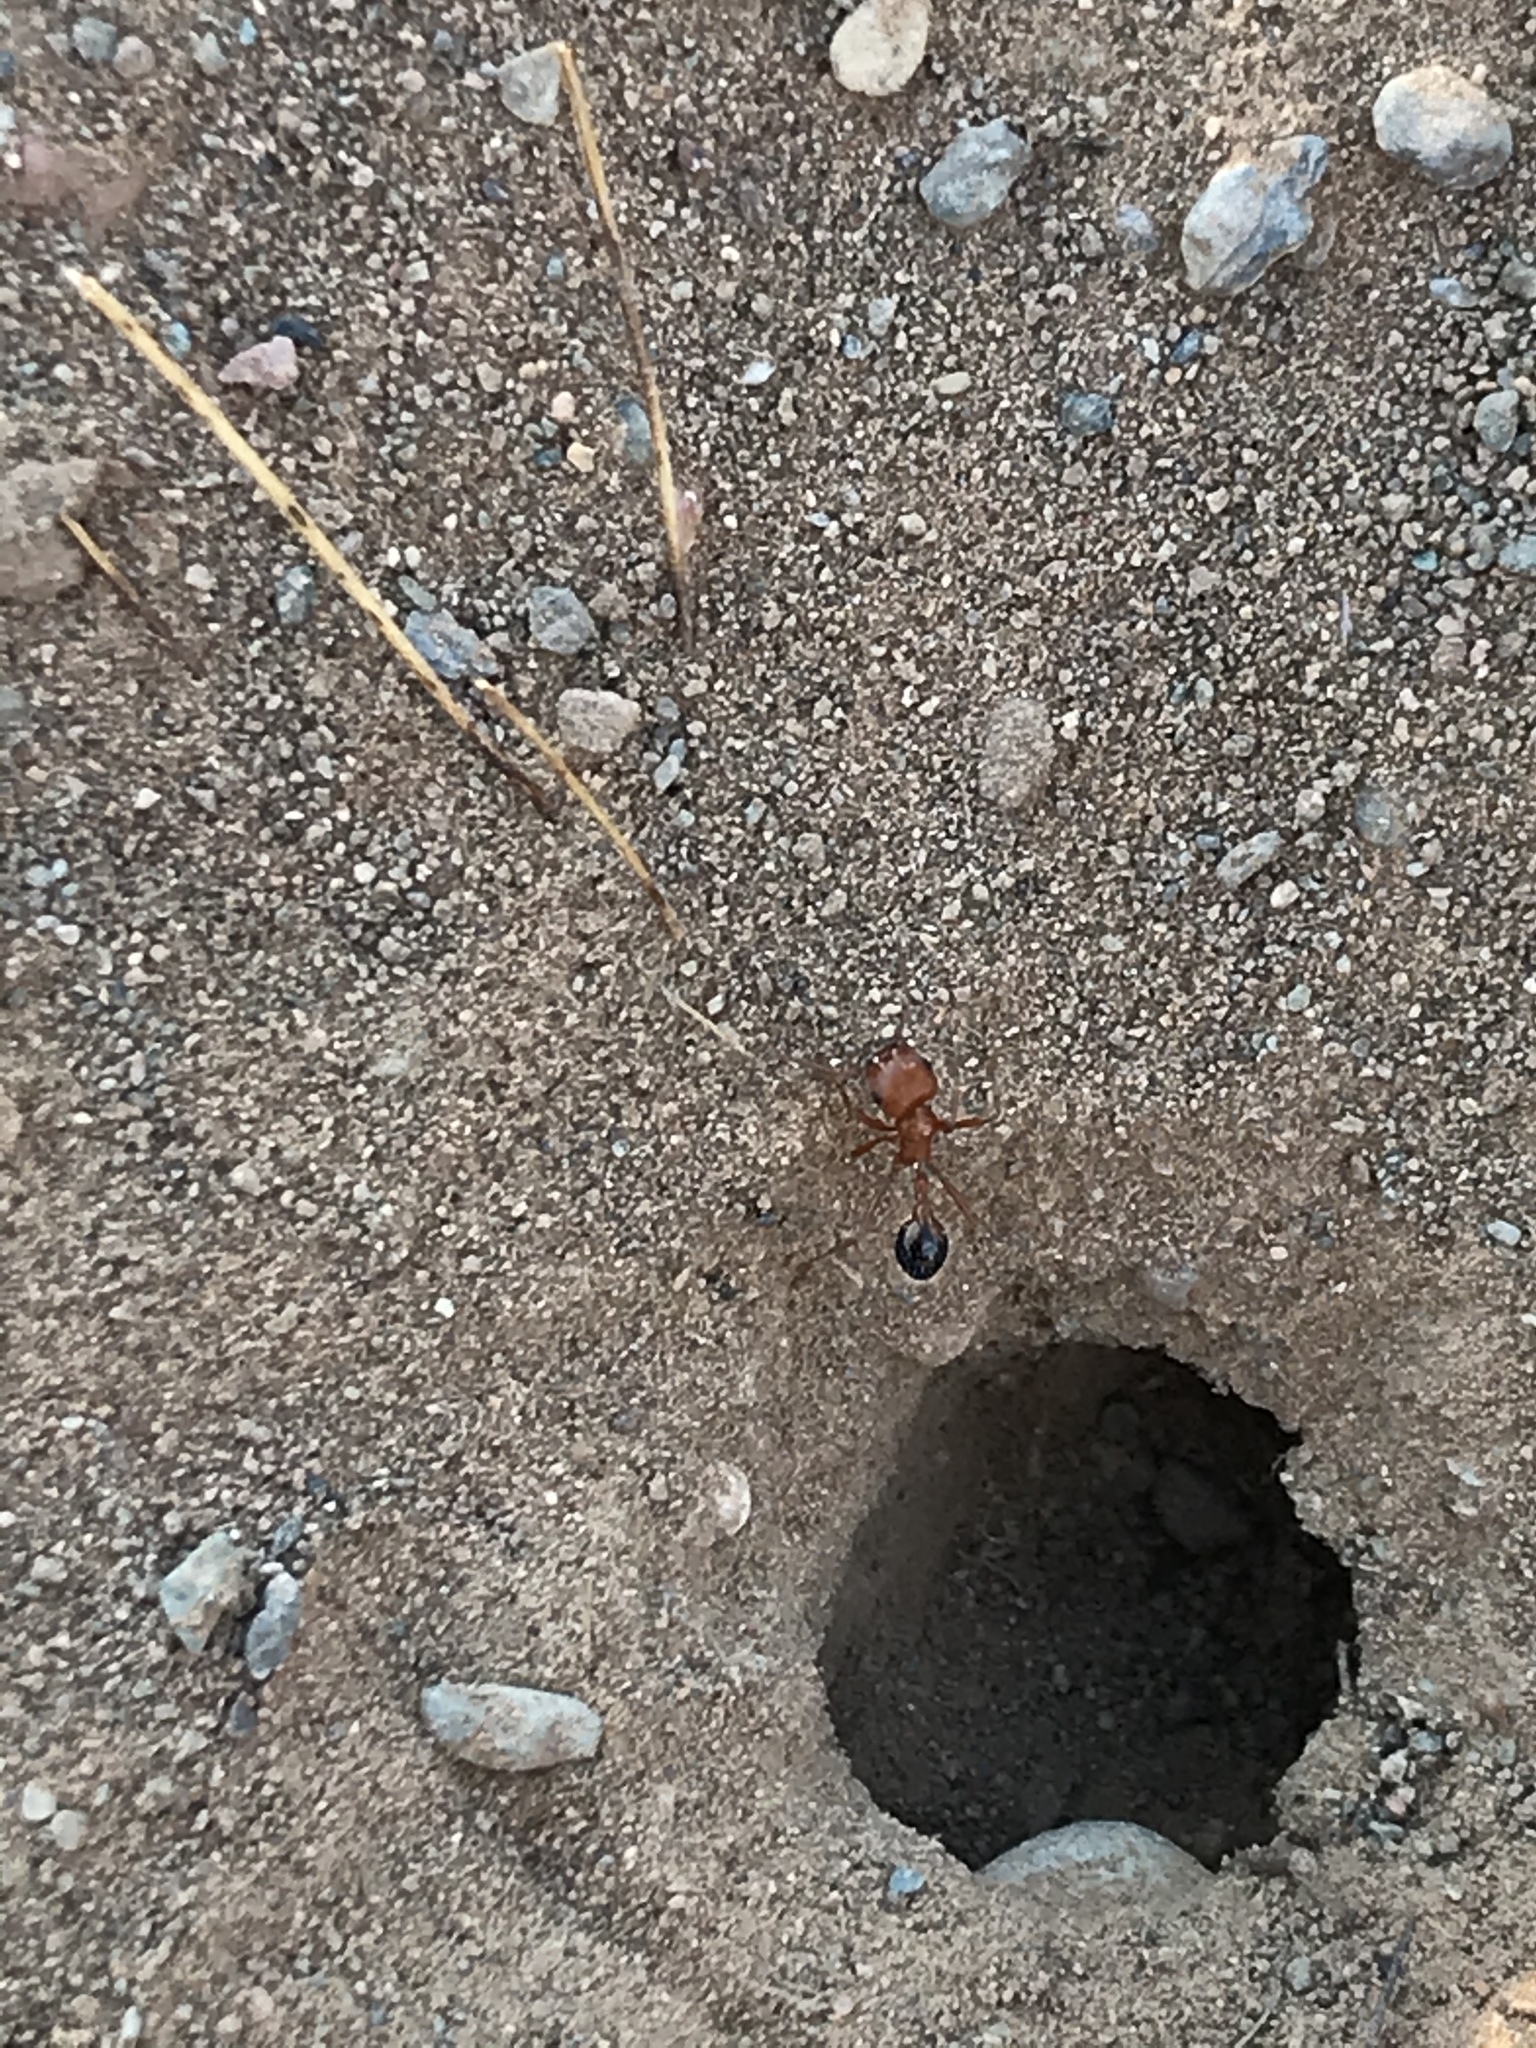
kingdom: Animalia
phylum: Arthropoda
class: Insecta
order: Hymenoptera
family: Formicidae
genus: Pogonomyrmex
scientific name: Pogonomyrmex californicus
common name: California harvester ant
